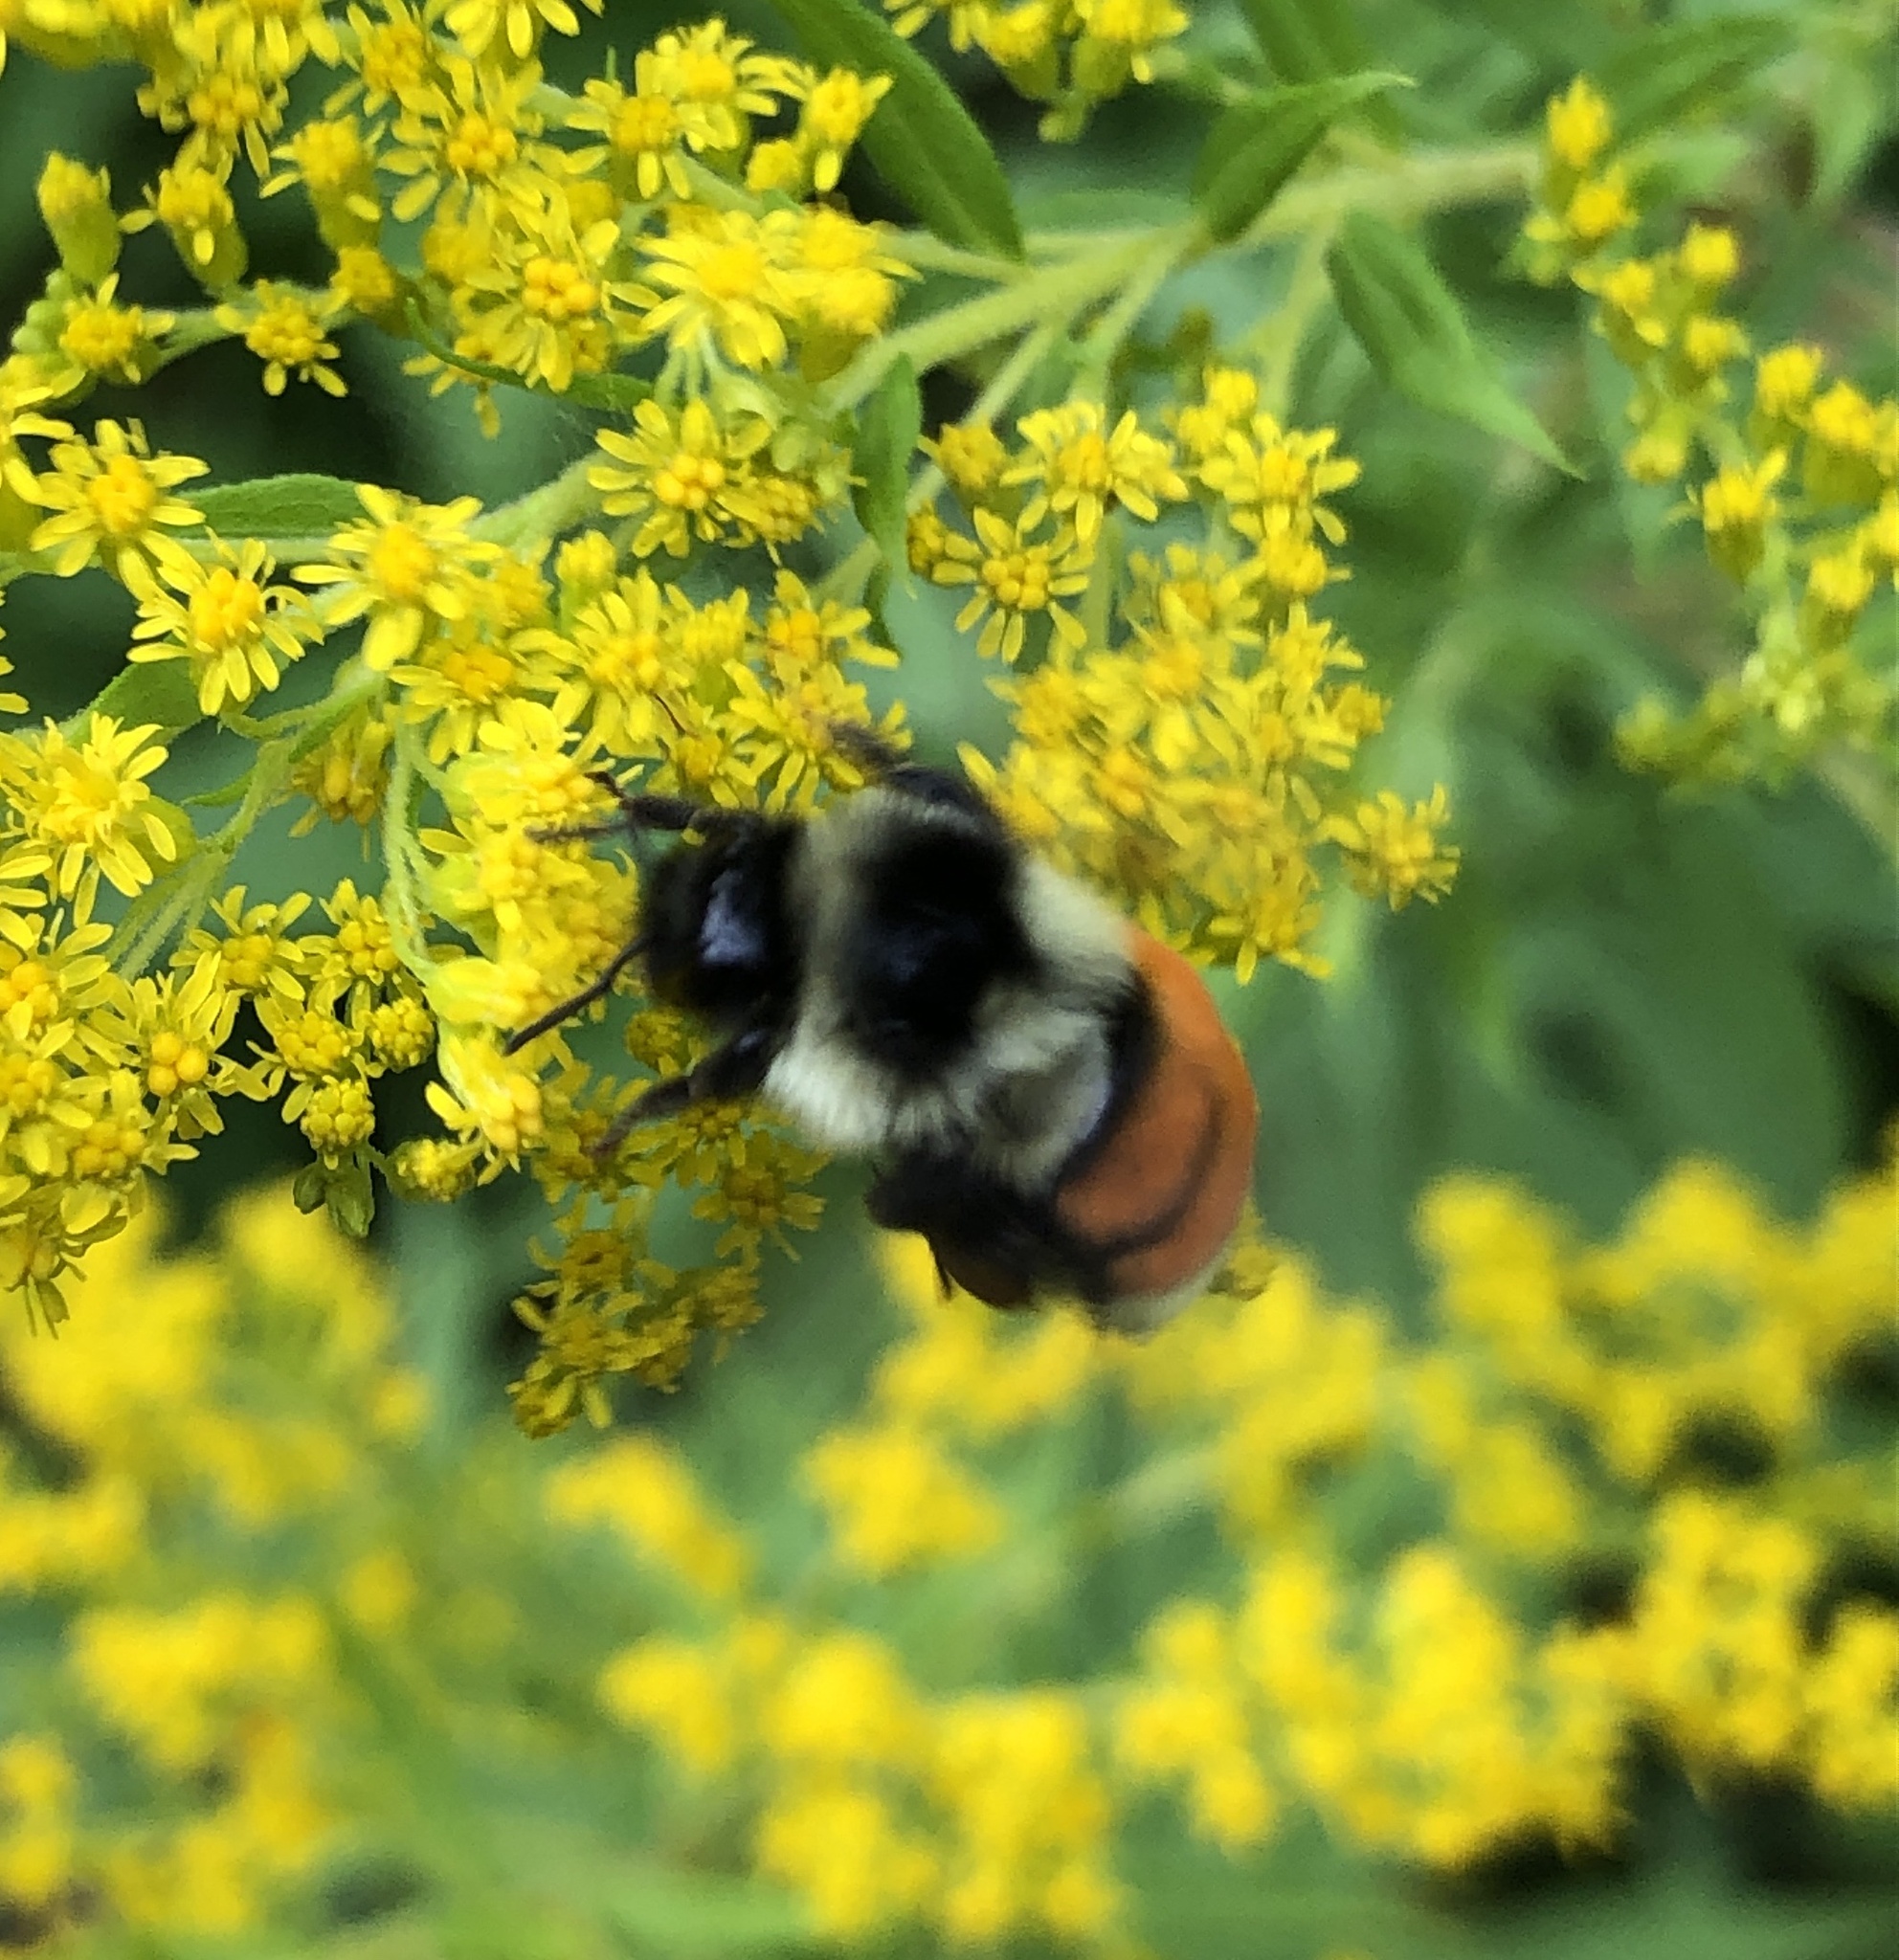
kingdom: Animalia
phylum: Arthropoda
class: Insecta
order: Hymenoptera
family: Apidae
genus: Bombus
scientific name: Bombus ternarius
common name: Tri-colored bumble bee
